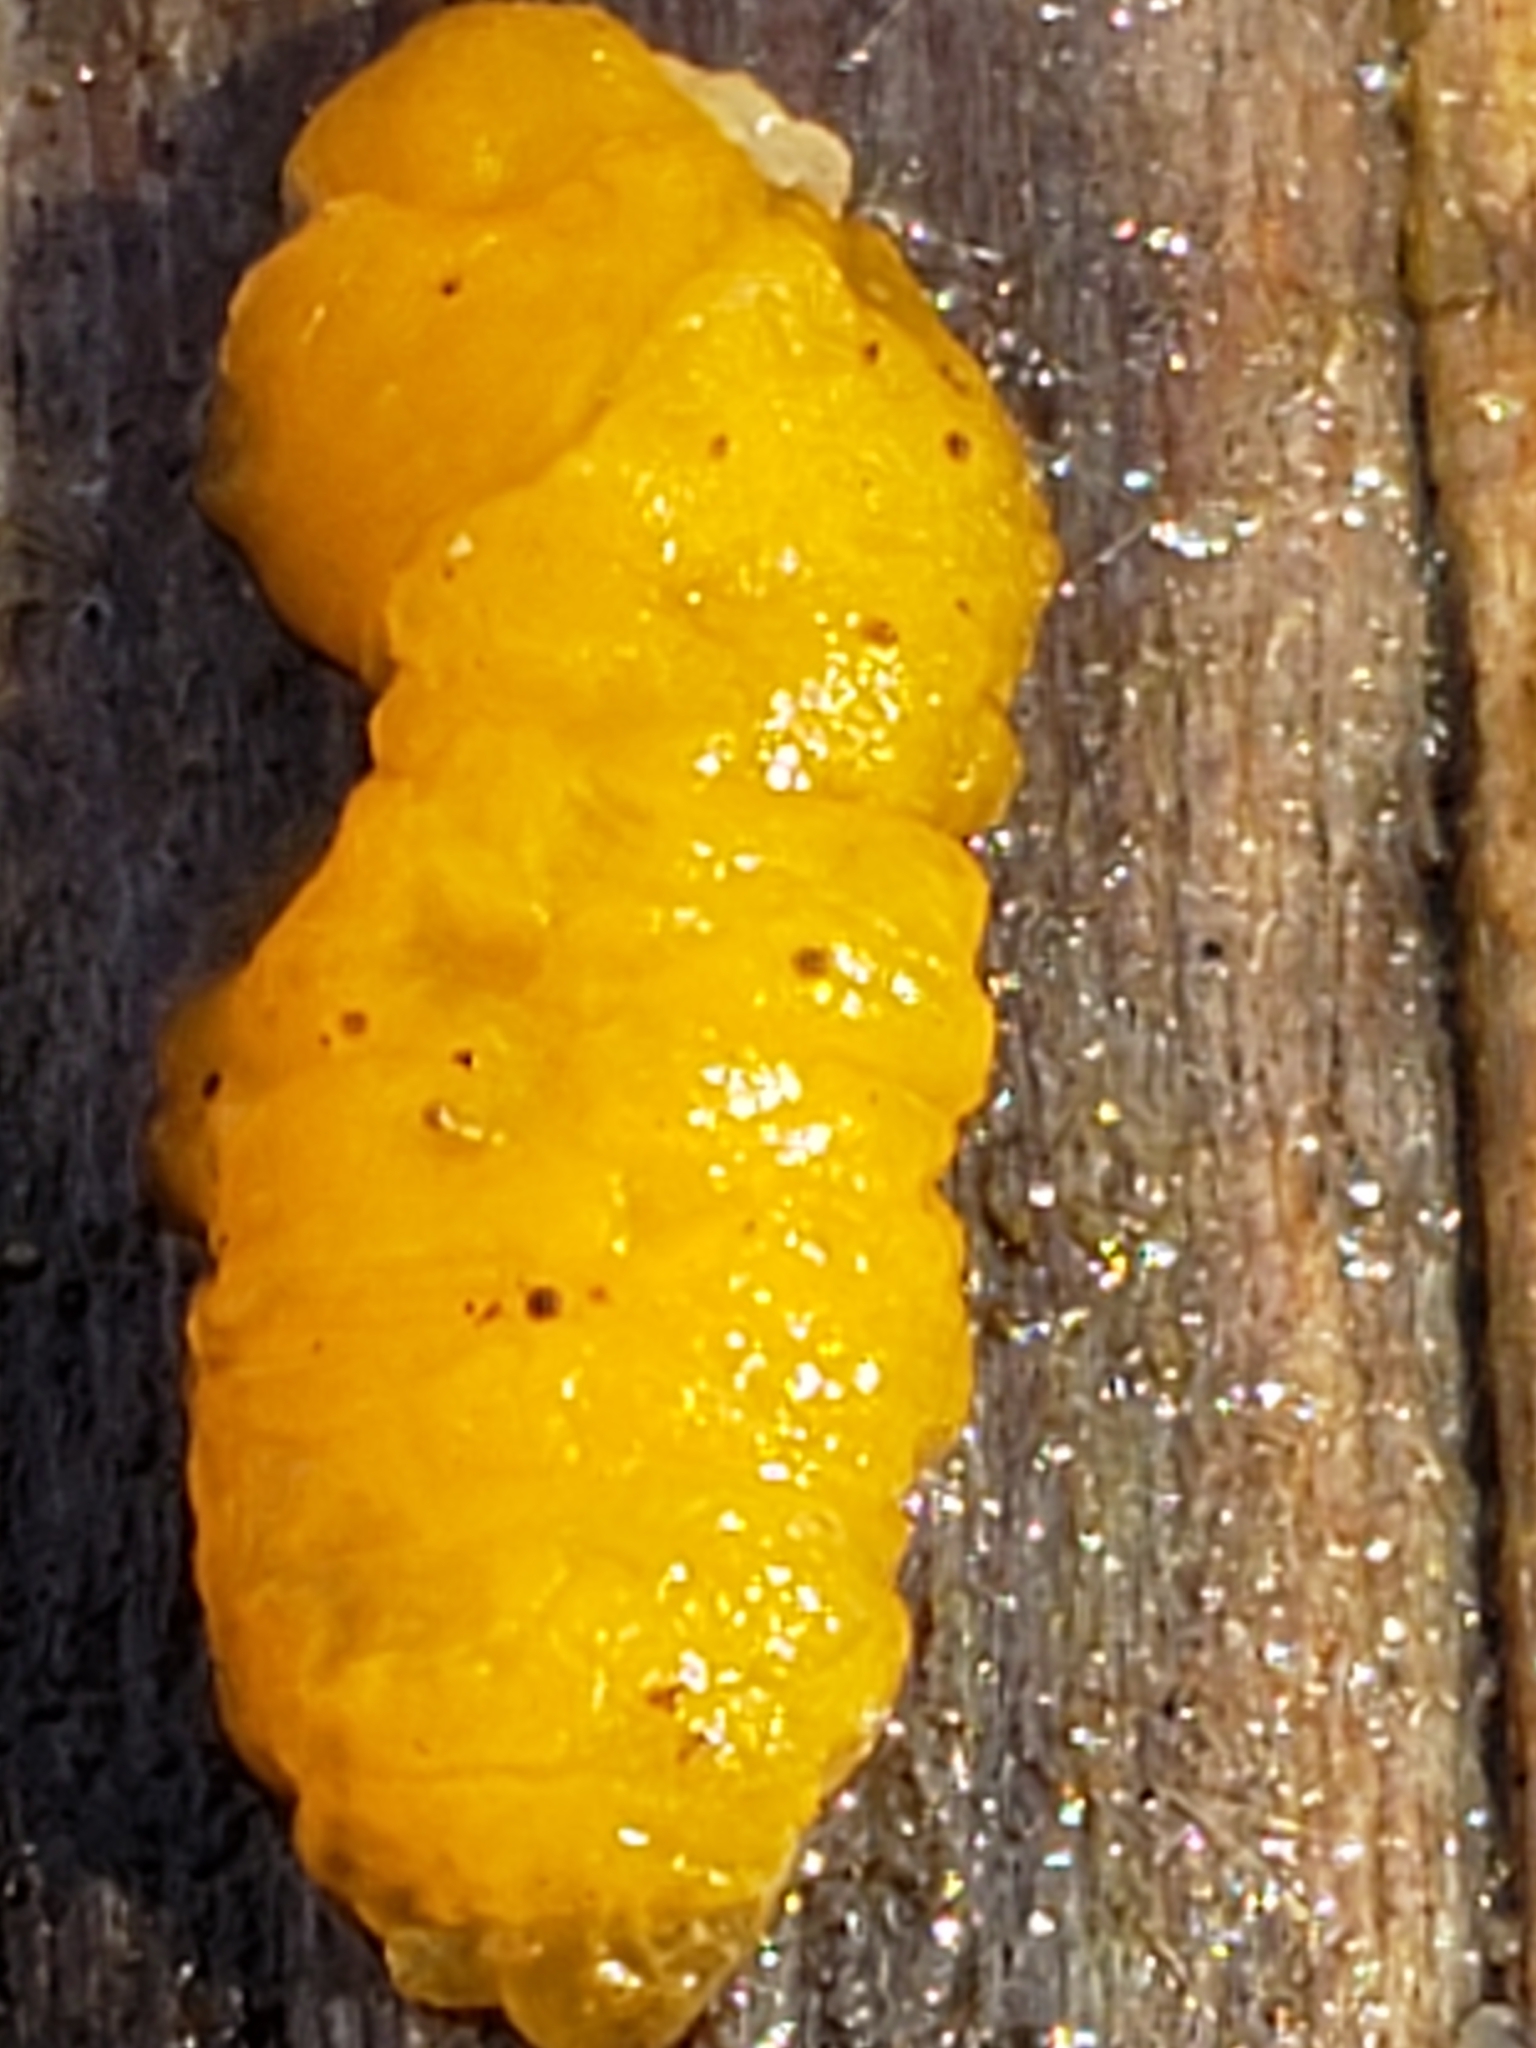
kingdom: Fungi
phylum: Basidiomycota
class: Dacrymycetes
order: Dacrymycetales
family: Dacrymycetaceae
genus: Dacrymyces
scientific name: Dacrymyces chrysospermus
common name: Orange jelly spot
